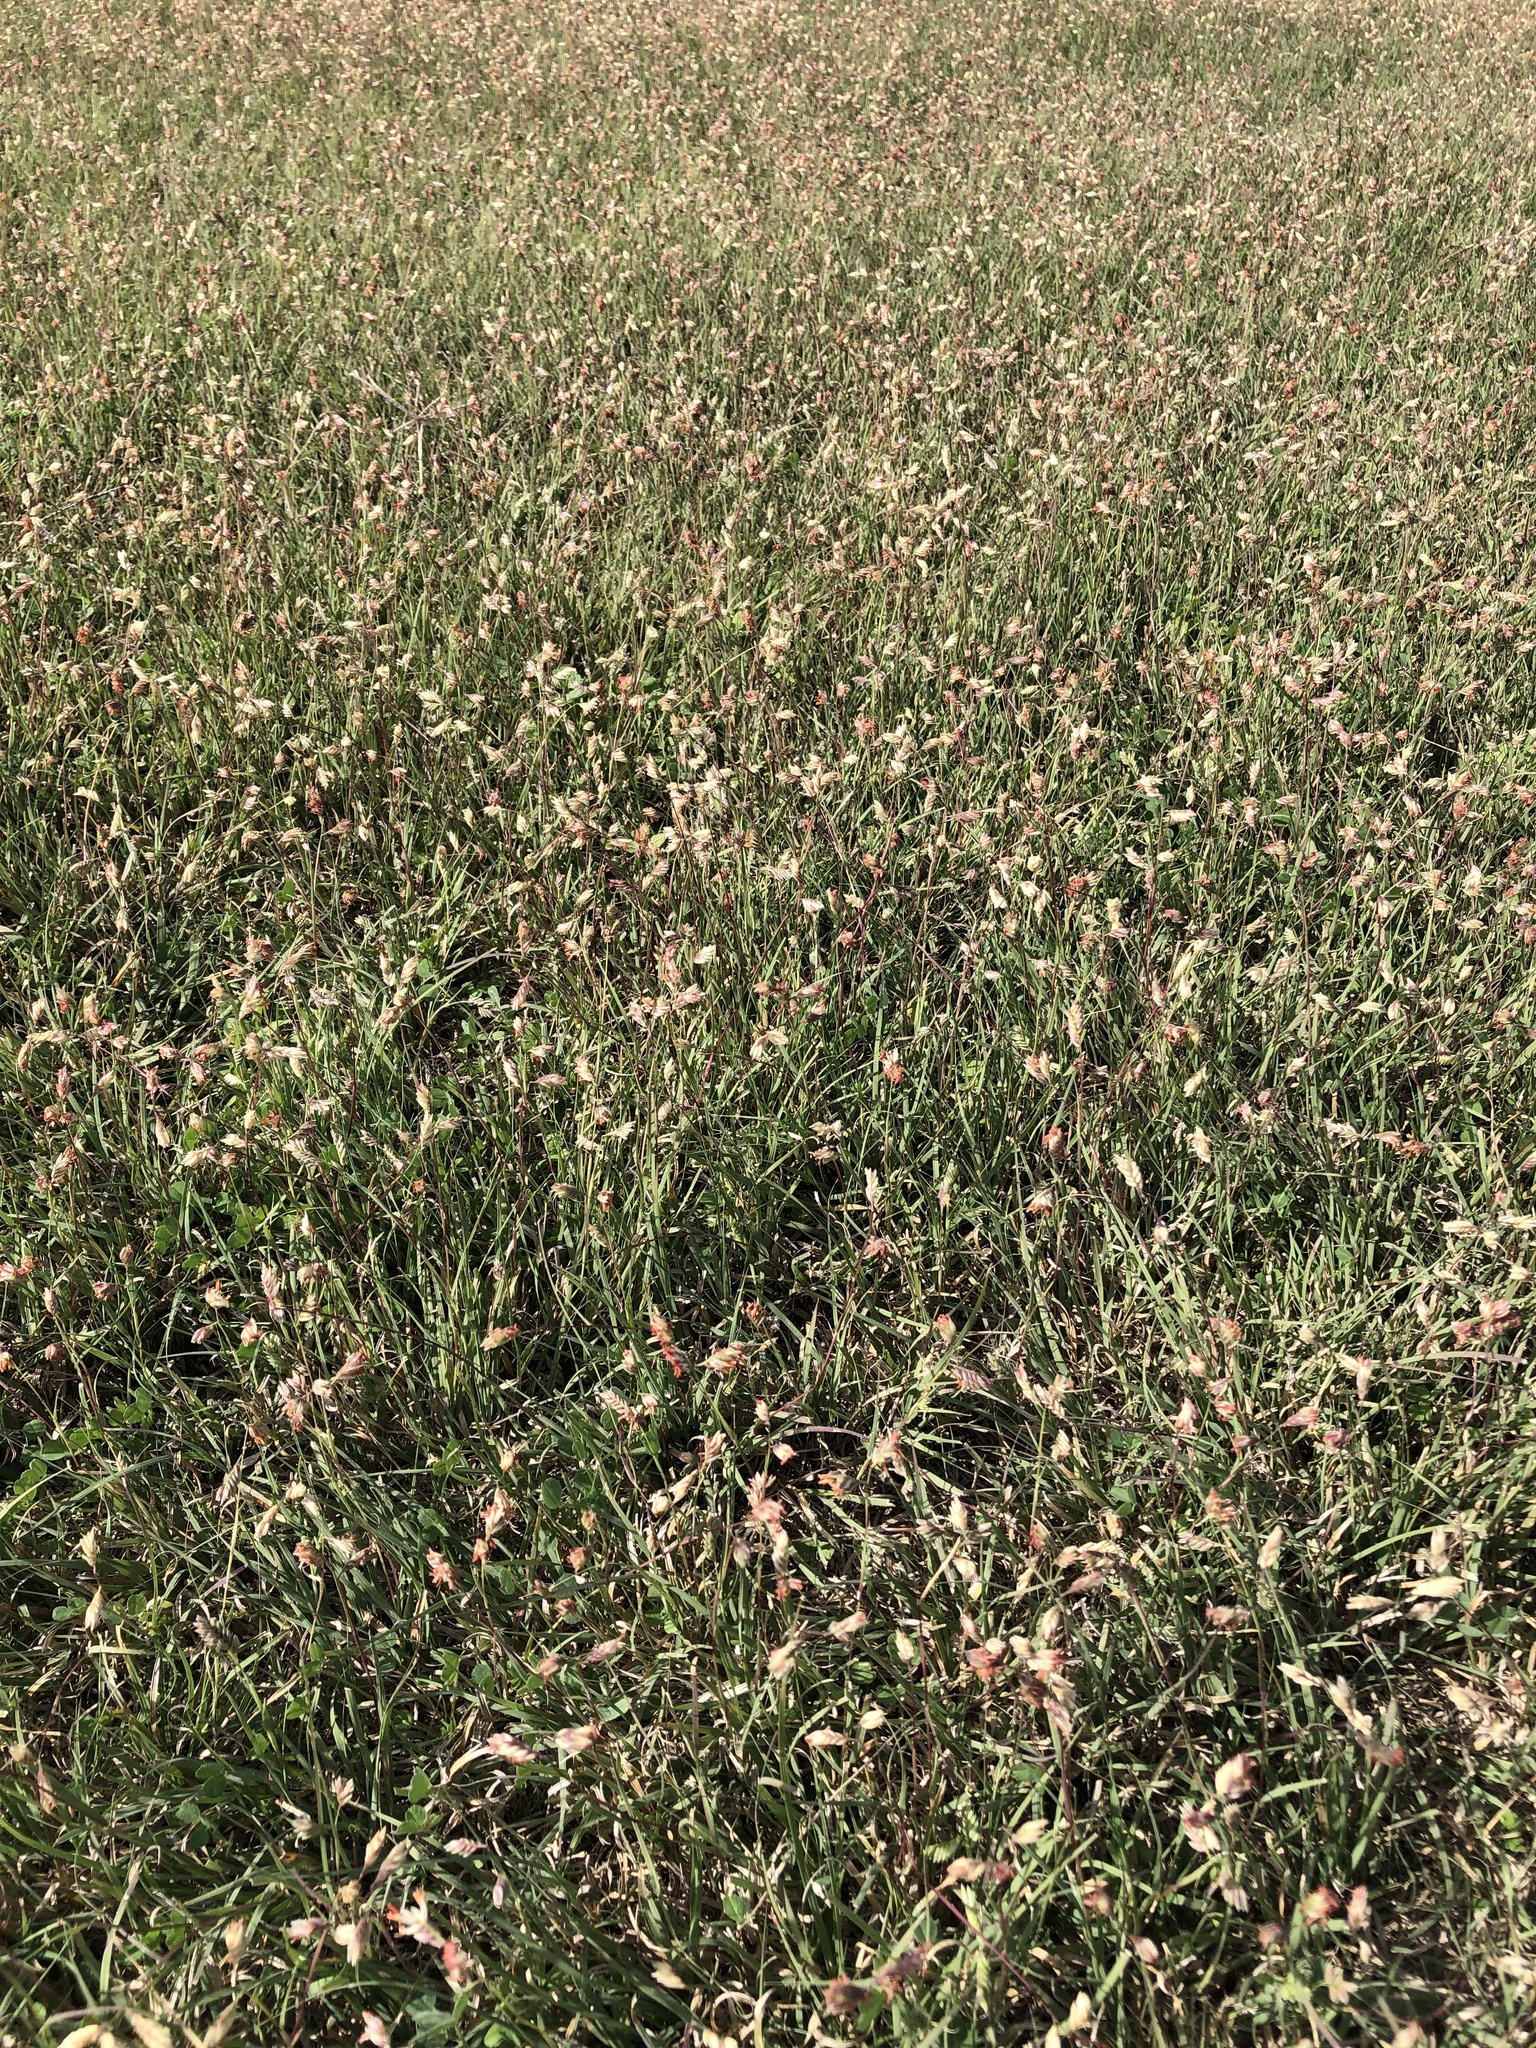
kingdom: Plantae
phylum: Tracheophyta
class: Liliopsida
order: Poales
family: Poaceae
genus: Bouteloua
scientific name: Bouteloua dactyloides
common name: Buffalo grass
